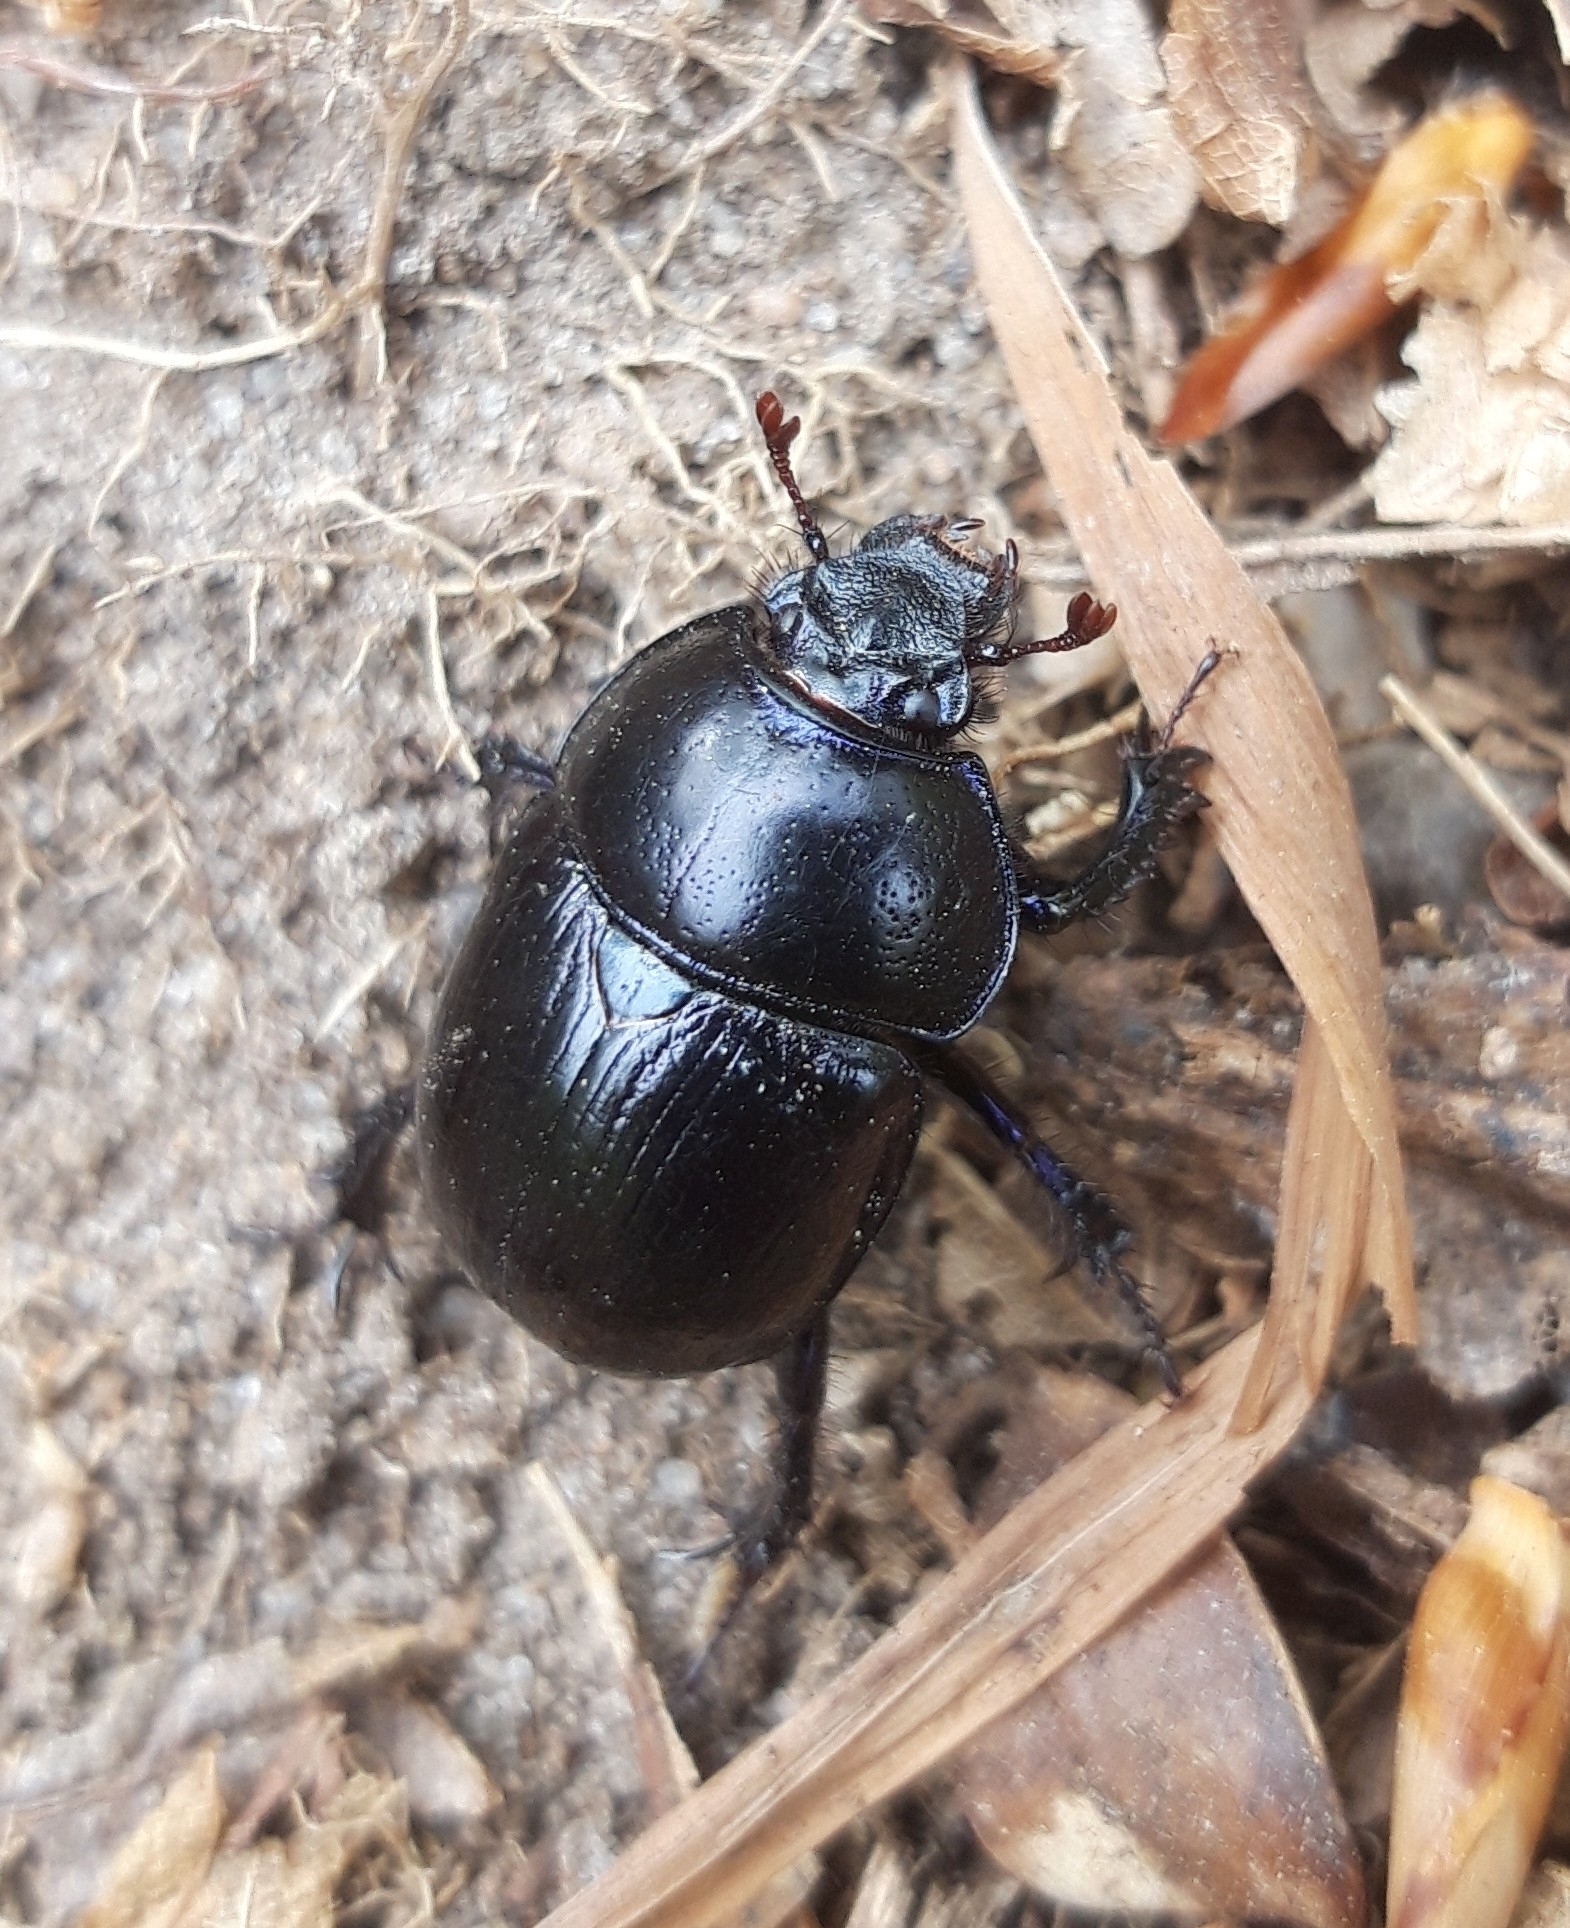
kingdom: Animalia
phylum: Arthropoda
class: Insecta
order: Coleoptera
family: Geotrupidae
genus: Anoplotrupes
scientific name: Anoplotrupes stercorosus
